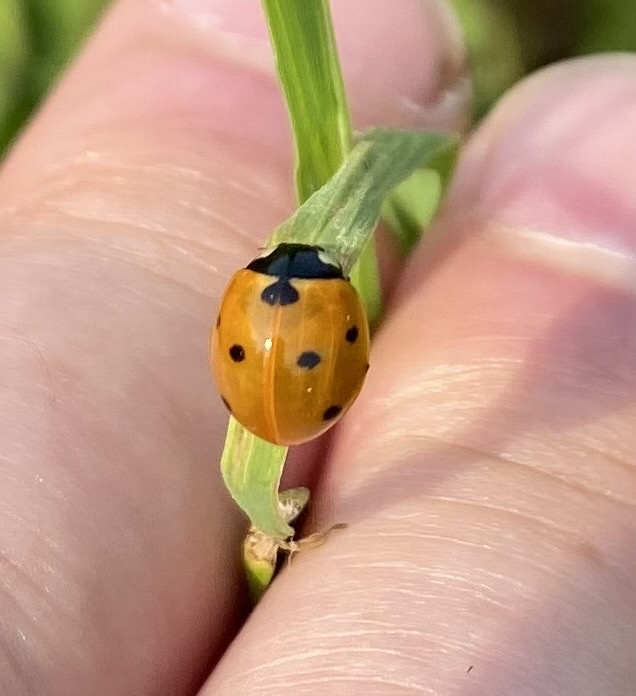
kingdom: Animalia
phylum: Arthropoda
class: Insecta
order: Coleoptera
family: Coccinellidae
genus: Coccinella
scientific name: Coccinella septempunctata
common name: Sevenspotted lady beetle
